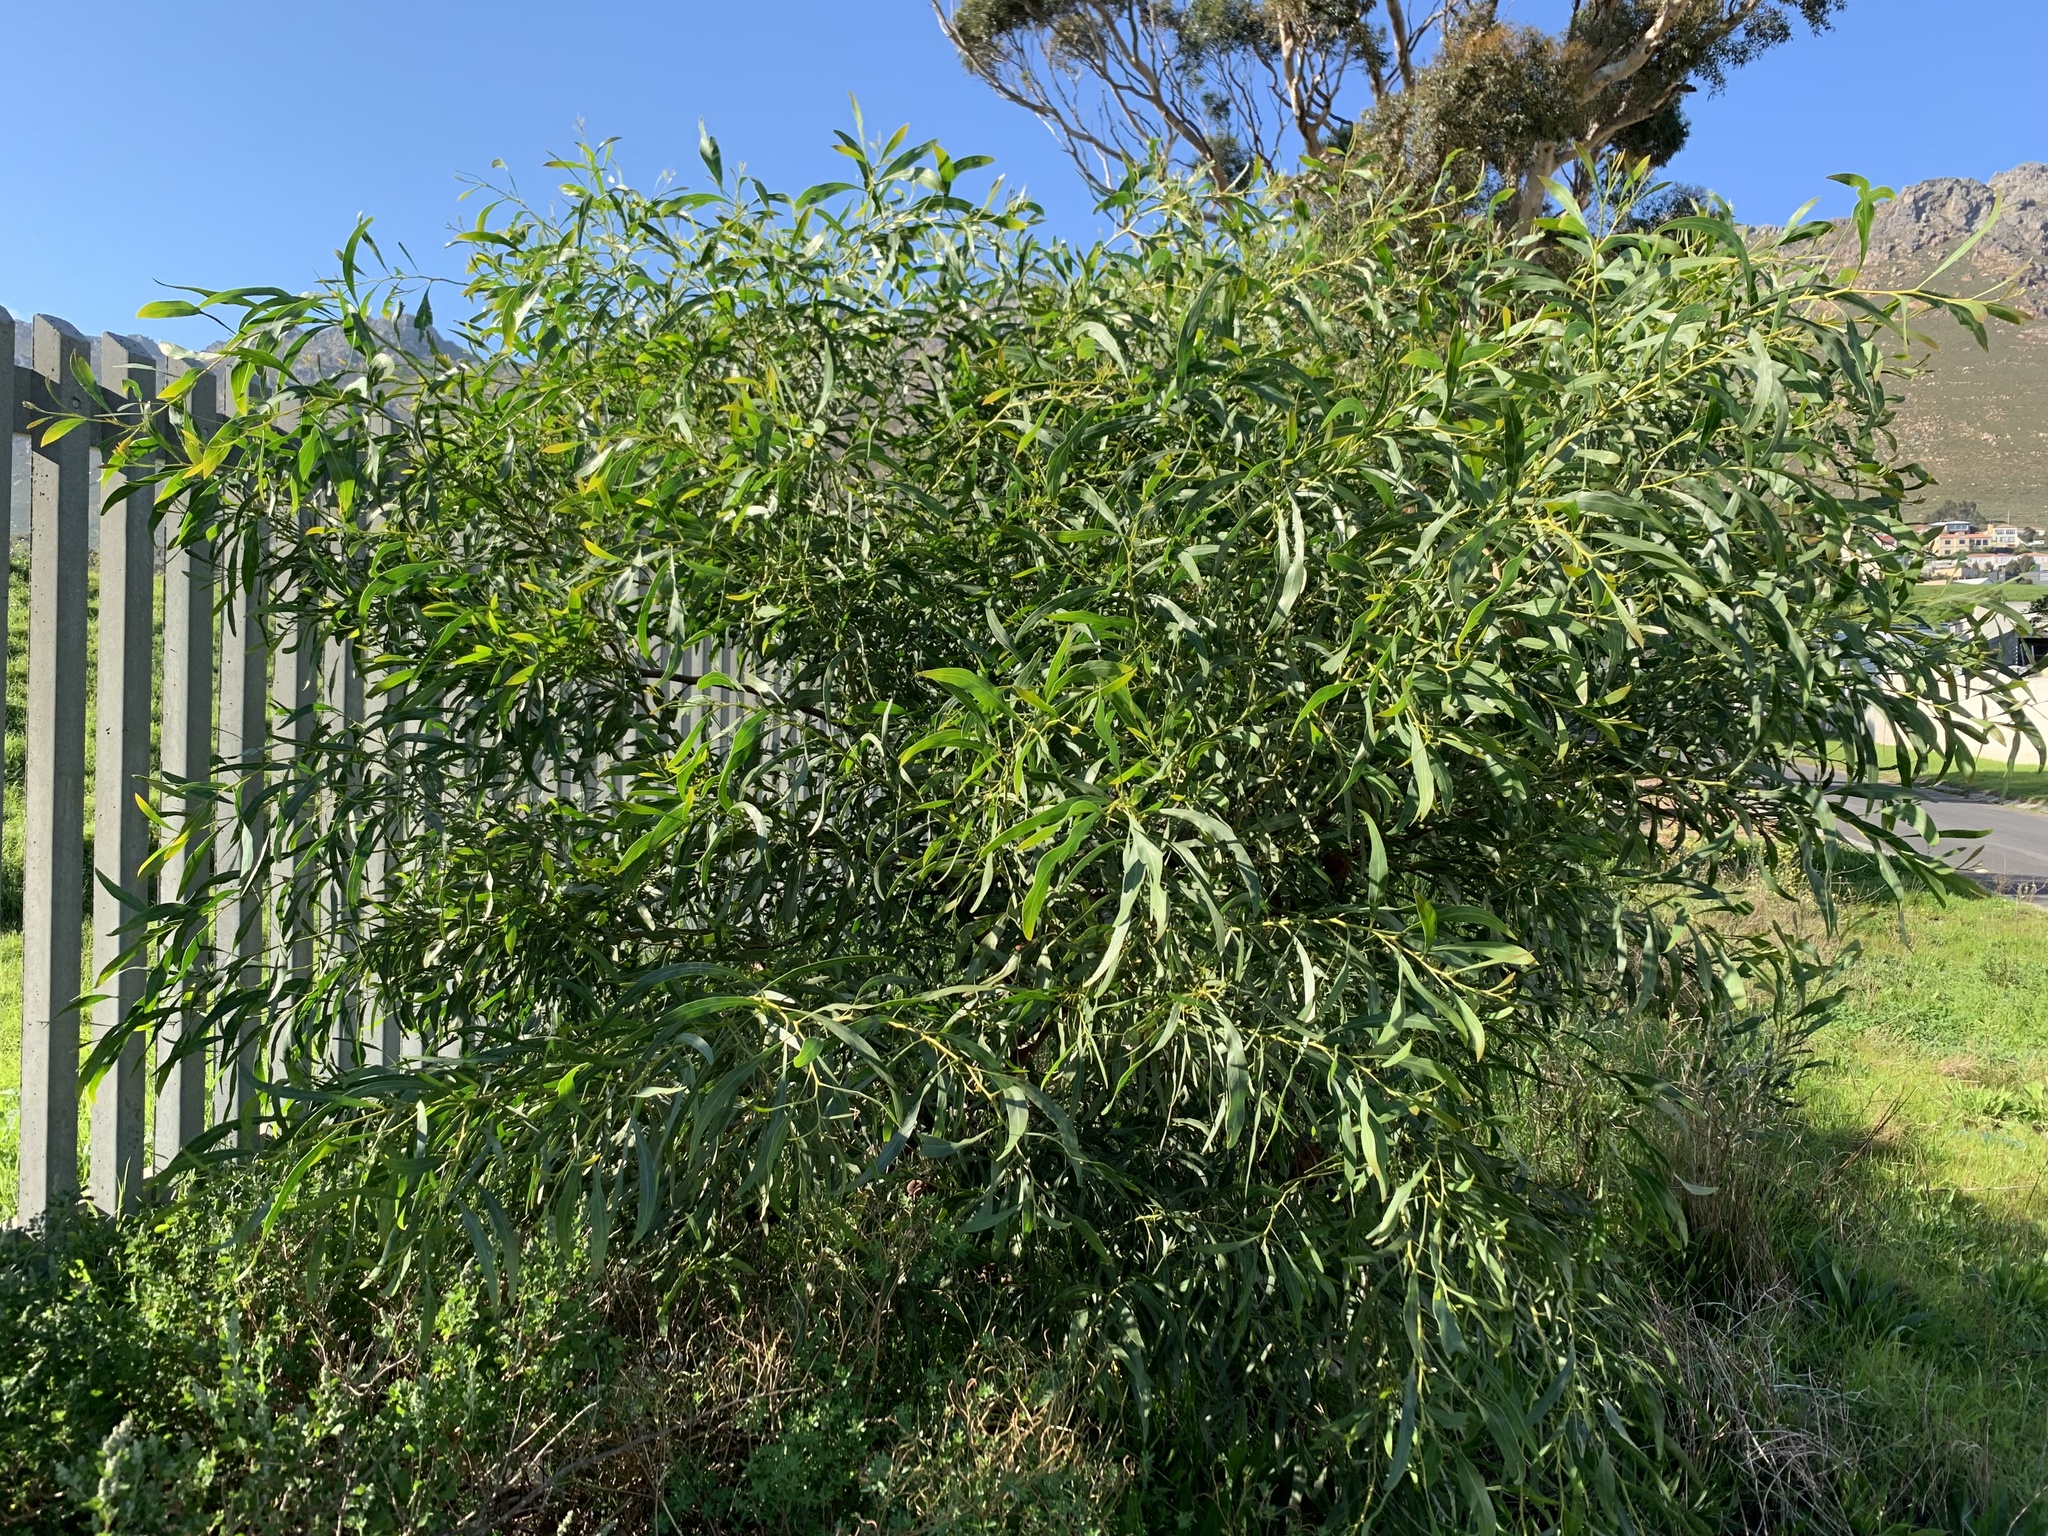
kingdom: Plantae
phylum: Tracheophyta
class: Magnoliopsida
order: Fabales
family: Fabaceae
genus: Acacia
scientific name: Acacia saligna
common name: Orange wattle
